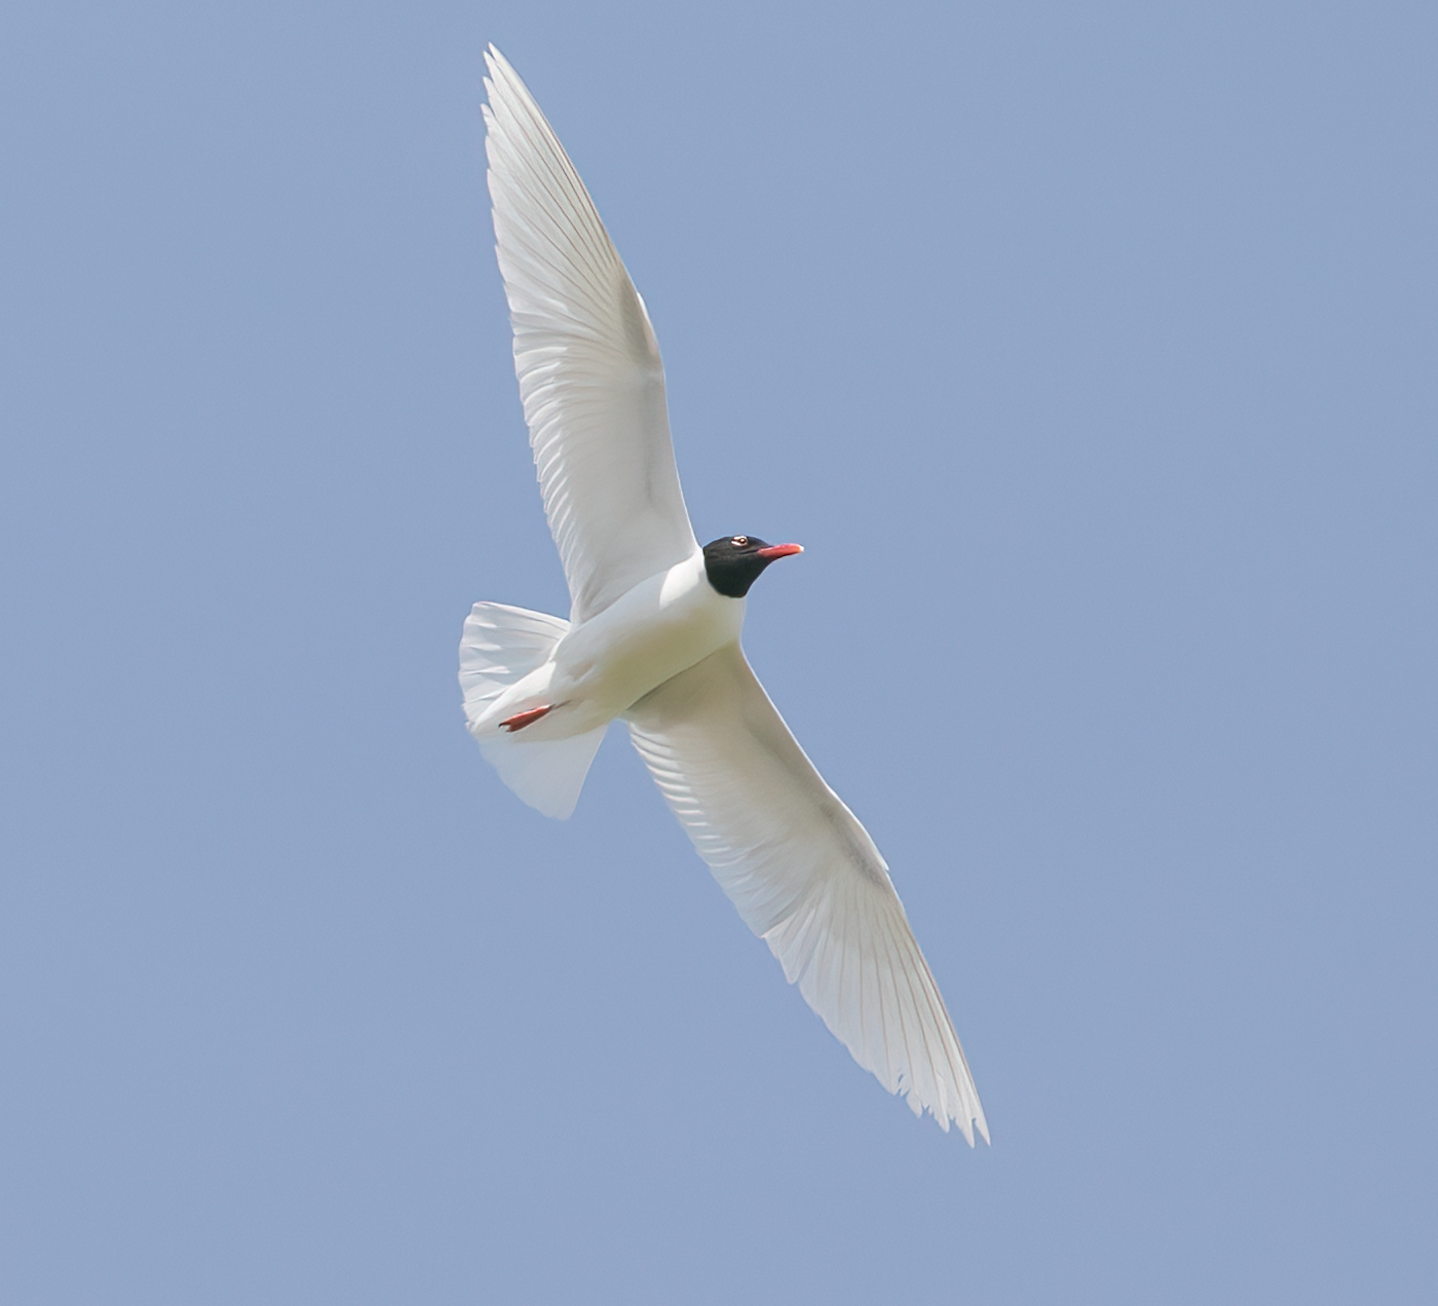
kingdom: Animalia
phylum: Chordata
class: Aves
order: Charadriiformes
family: Laridae
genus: Ichthyaetus
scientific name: Ichthyaetus melanocephalus
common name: Mediterranean gull
